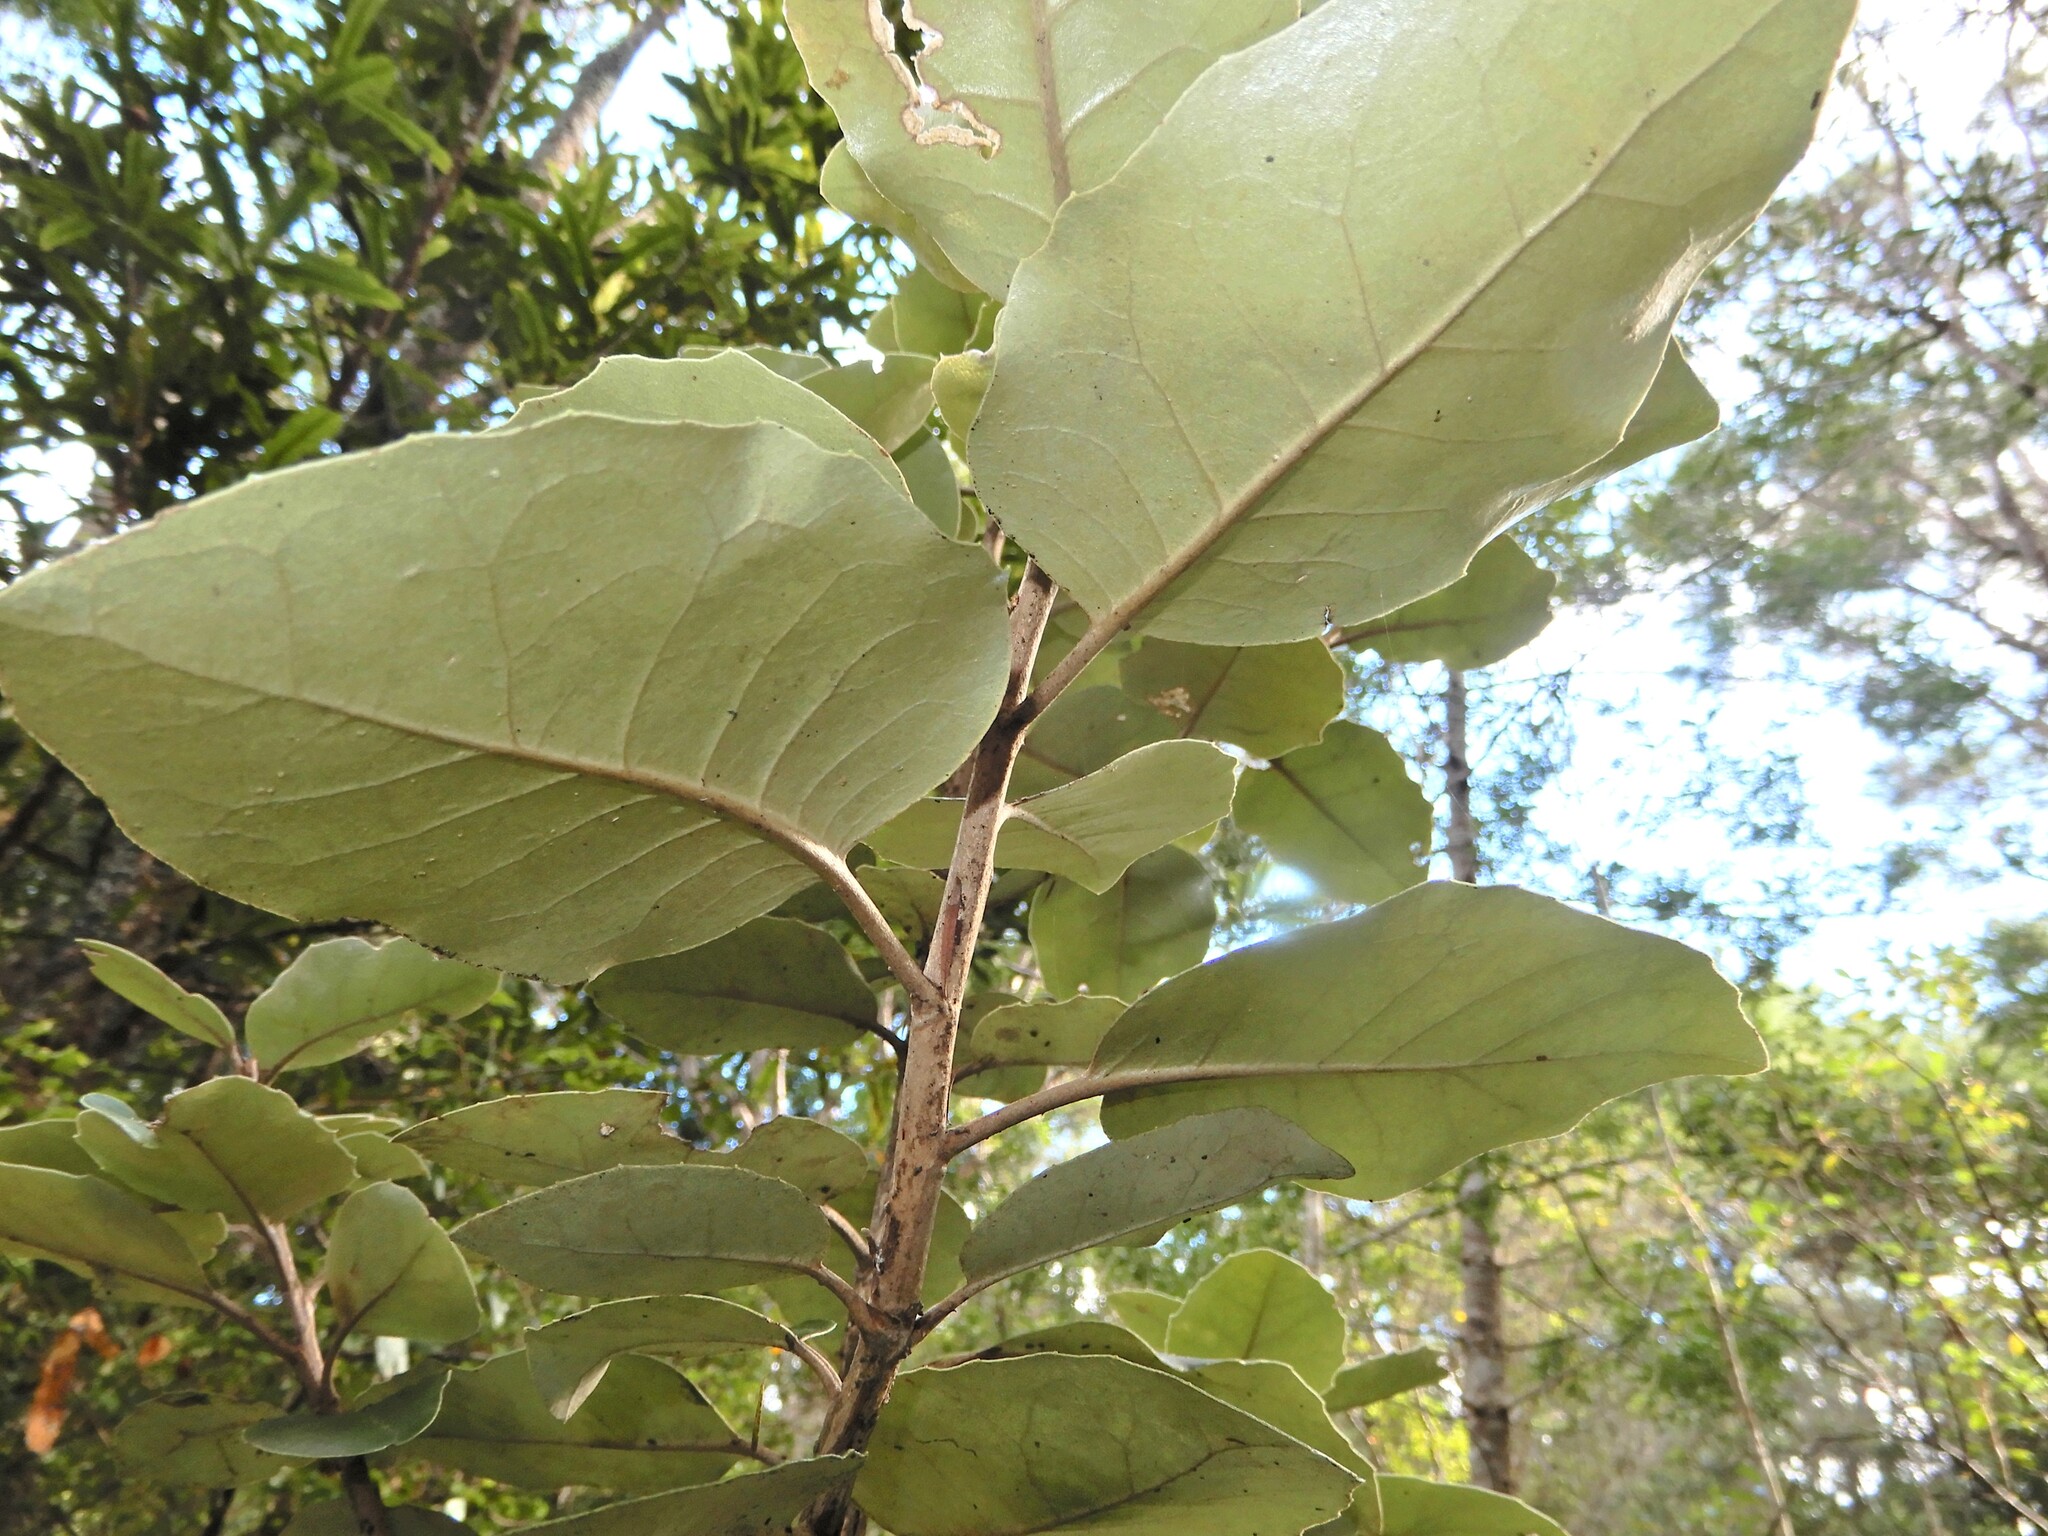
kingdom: Plantae
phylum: Tracheophyta
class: Magnoliopsida
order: Asterales
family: Asteraceae
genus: Olearia
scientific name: Olearia furfuracea
